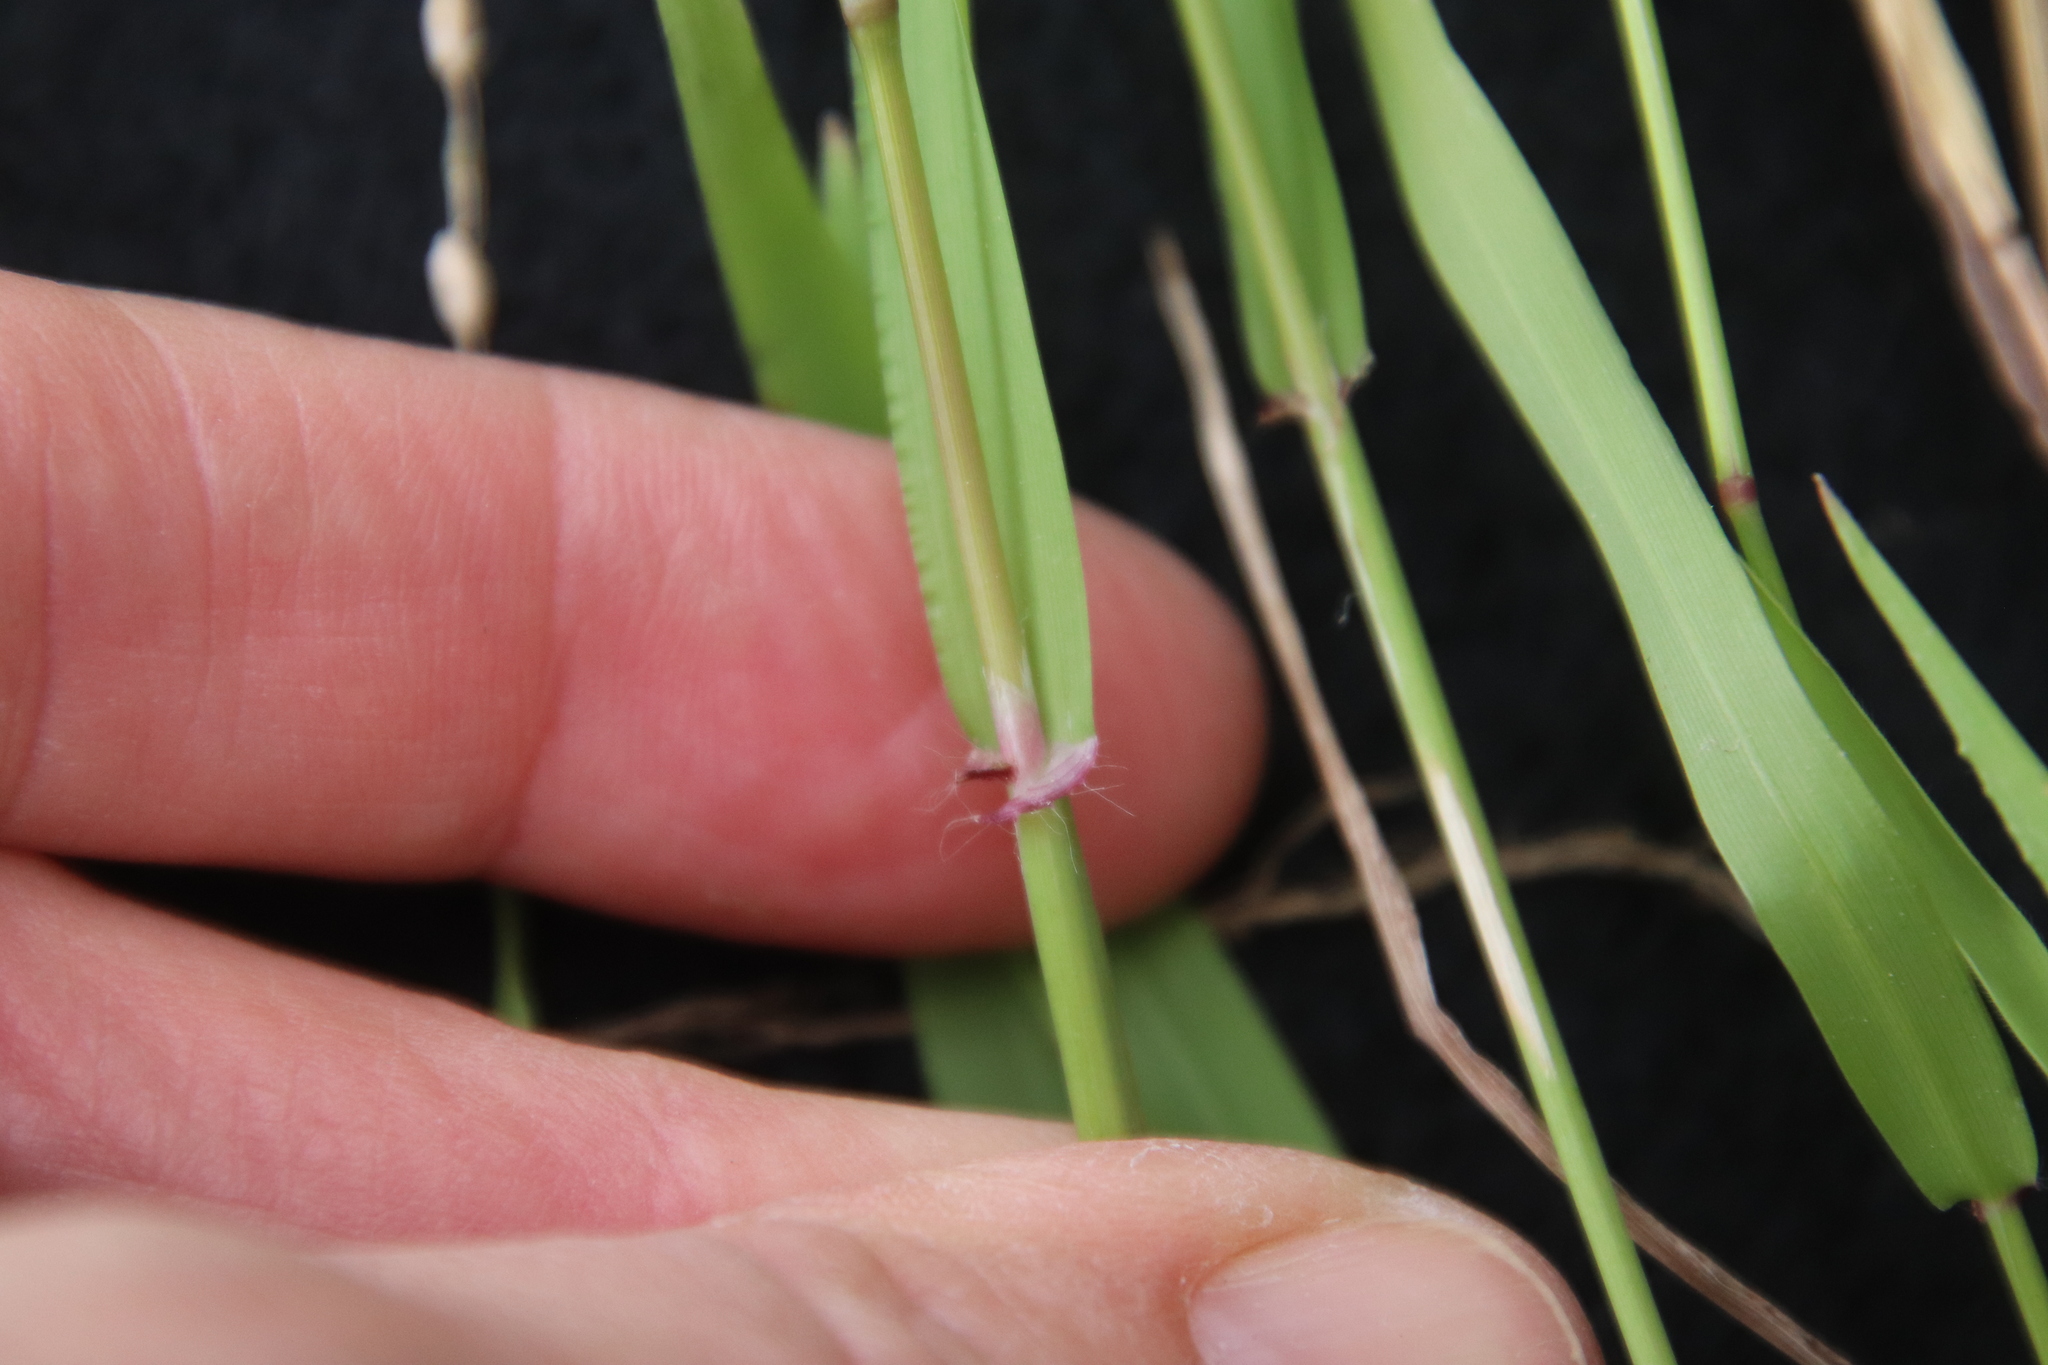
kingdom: Plantae
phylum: Tracheophyta
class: Liliopsida
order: Poales
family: Poaceae
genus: Ehrharta
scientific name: Ehrharta erecta
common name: Panic veldtgrass
